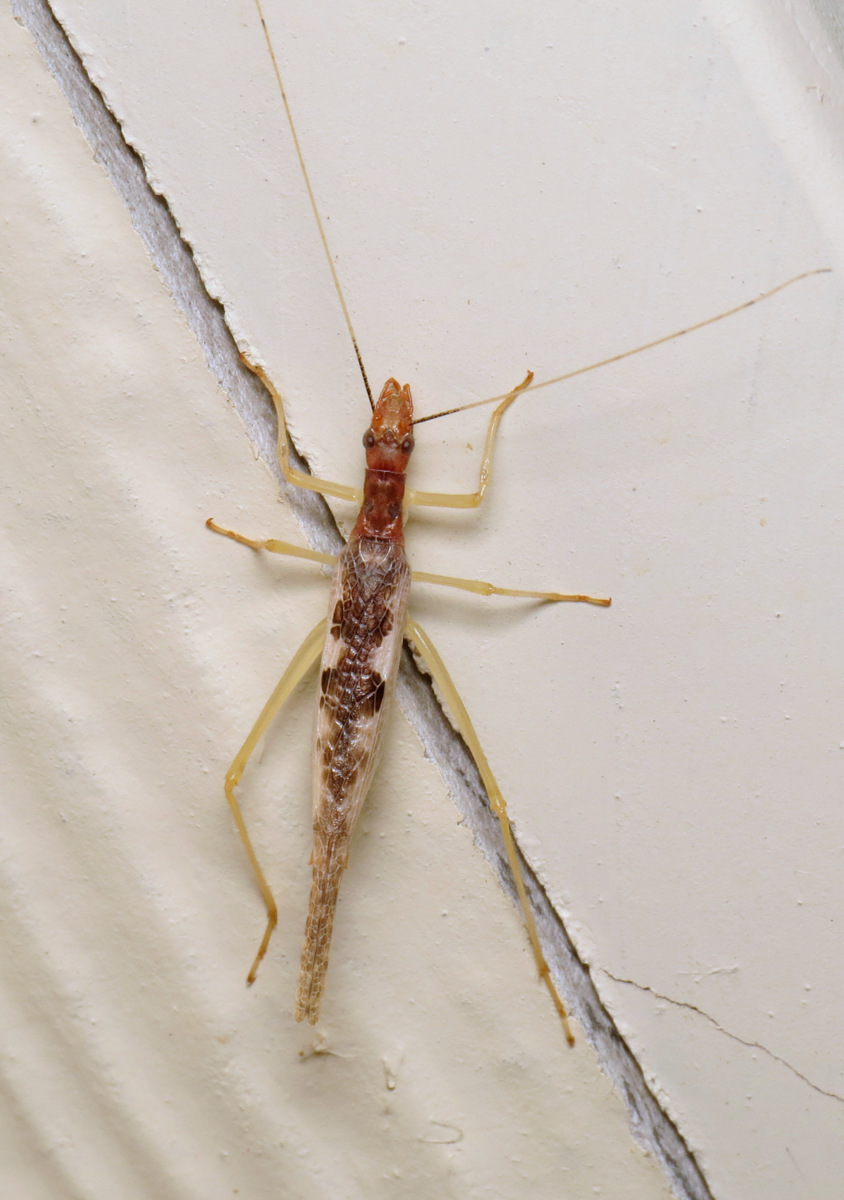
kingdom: Animalia
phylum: Arthropoda
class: Insecta
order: Orthoptera
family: Gryllidae
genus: Neoxabea
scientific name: Neoxabea bipunctata
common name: Two-spotted tree cricket
